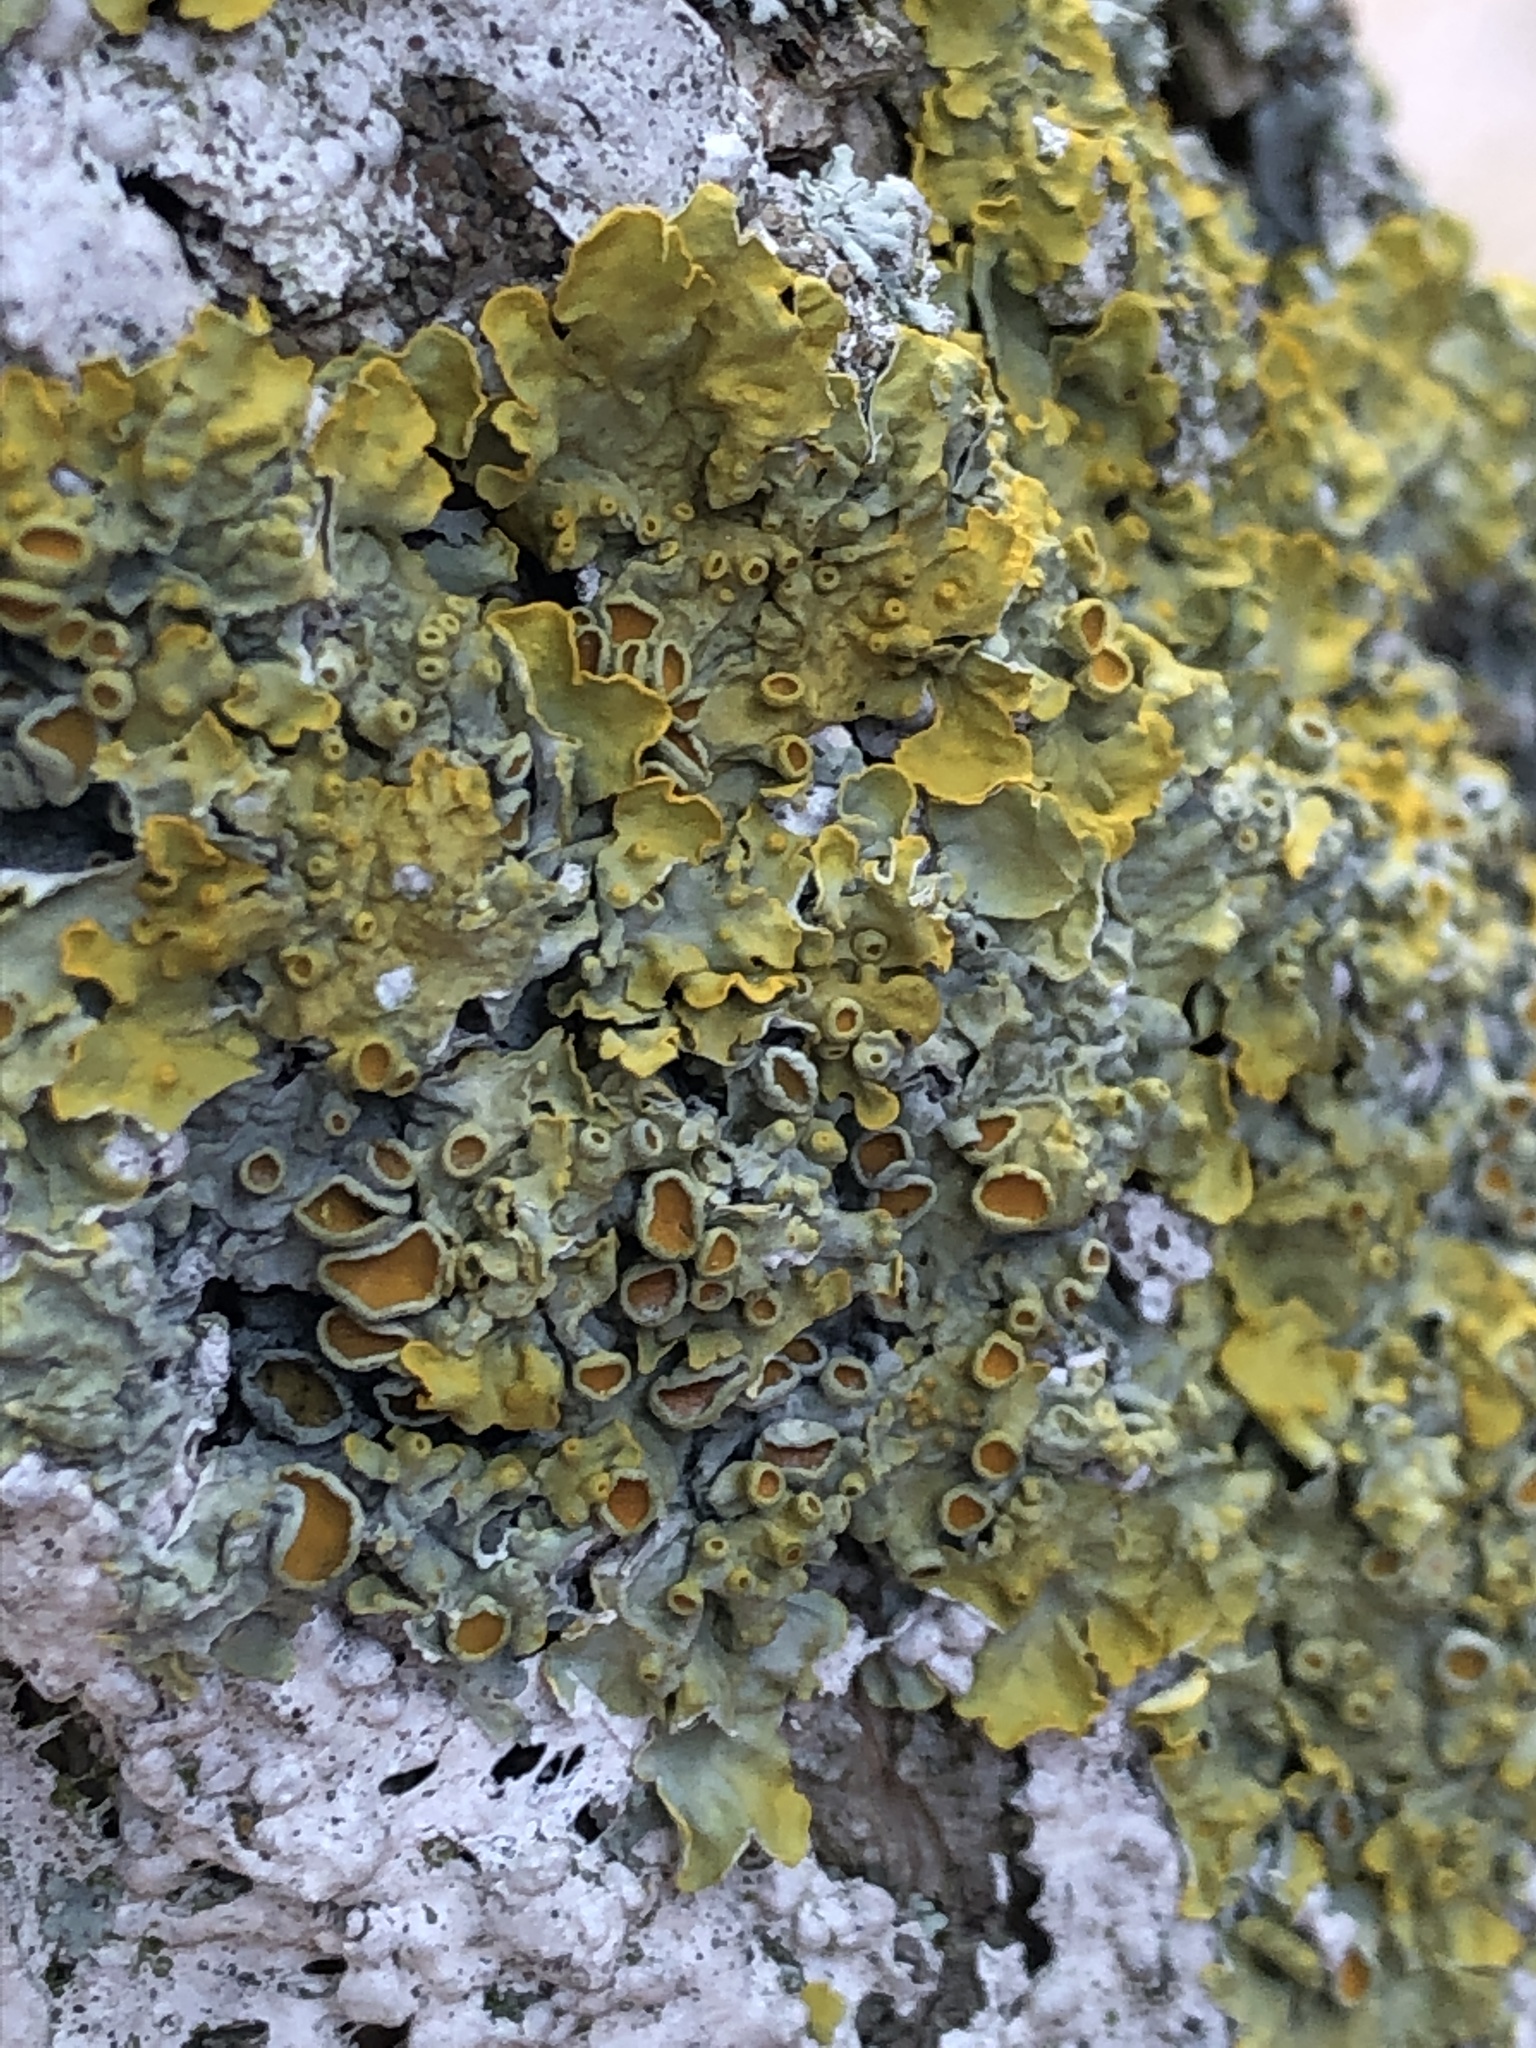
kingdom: Fungi
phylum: Ascomycota
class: Lecanoromycetes
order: Teloschistales
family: Teloschistaceae
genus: Xanthoria
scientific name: Xanthoria parietina
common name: Common orange lichen
